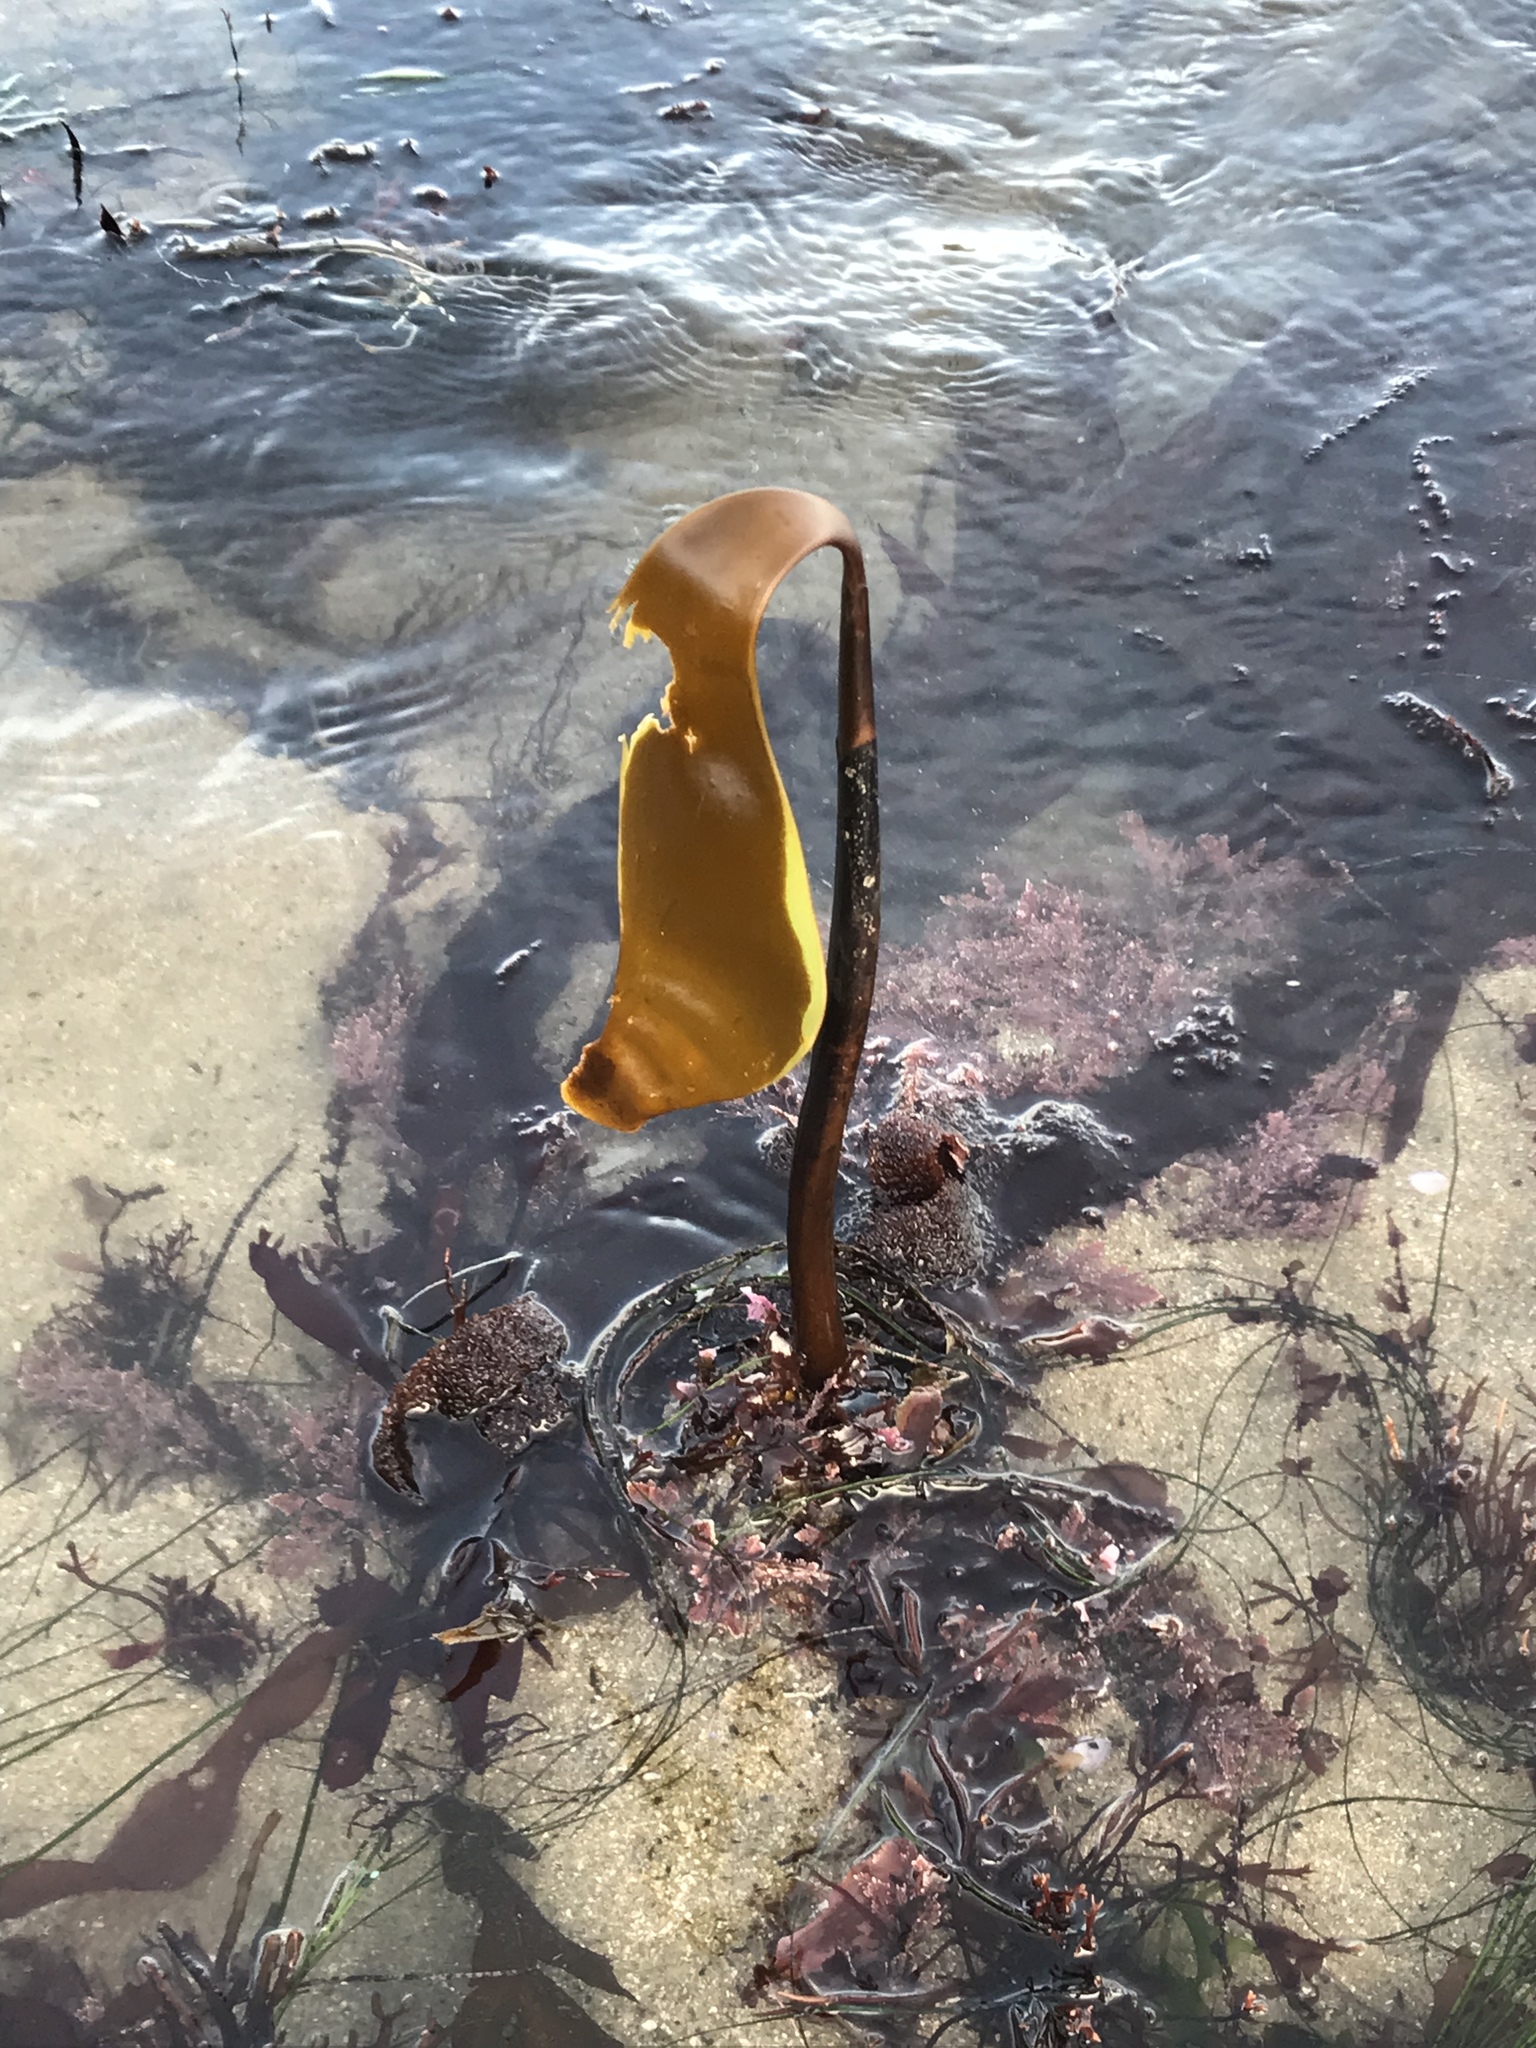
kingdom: Chromista
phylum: Ochrophyta
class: Phaeophyceae
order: Laminariales
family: Laminariaceae
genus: Laminaria
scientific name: Laminaria setchellii
